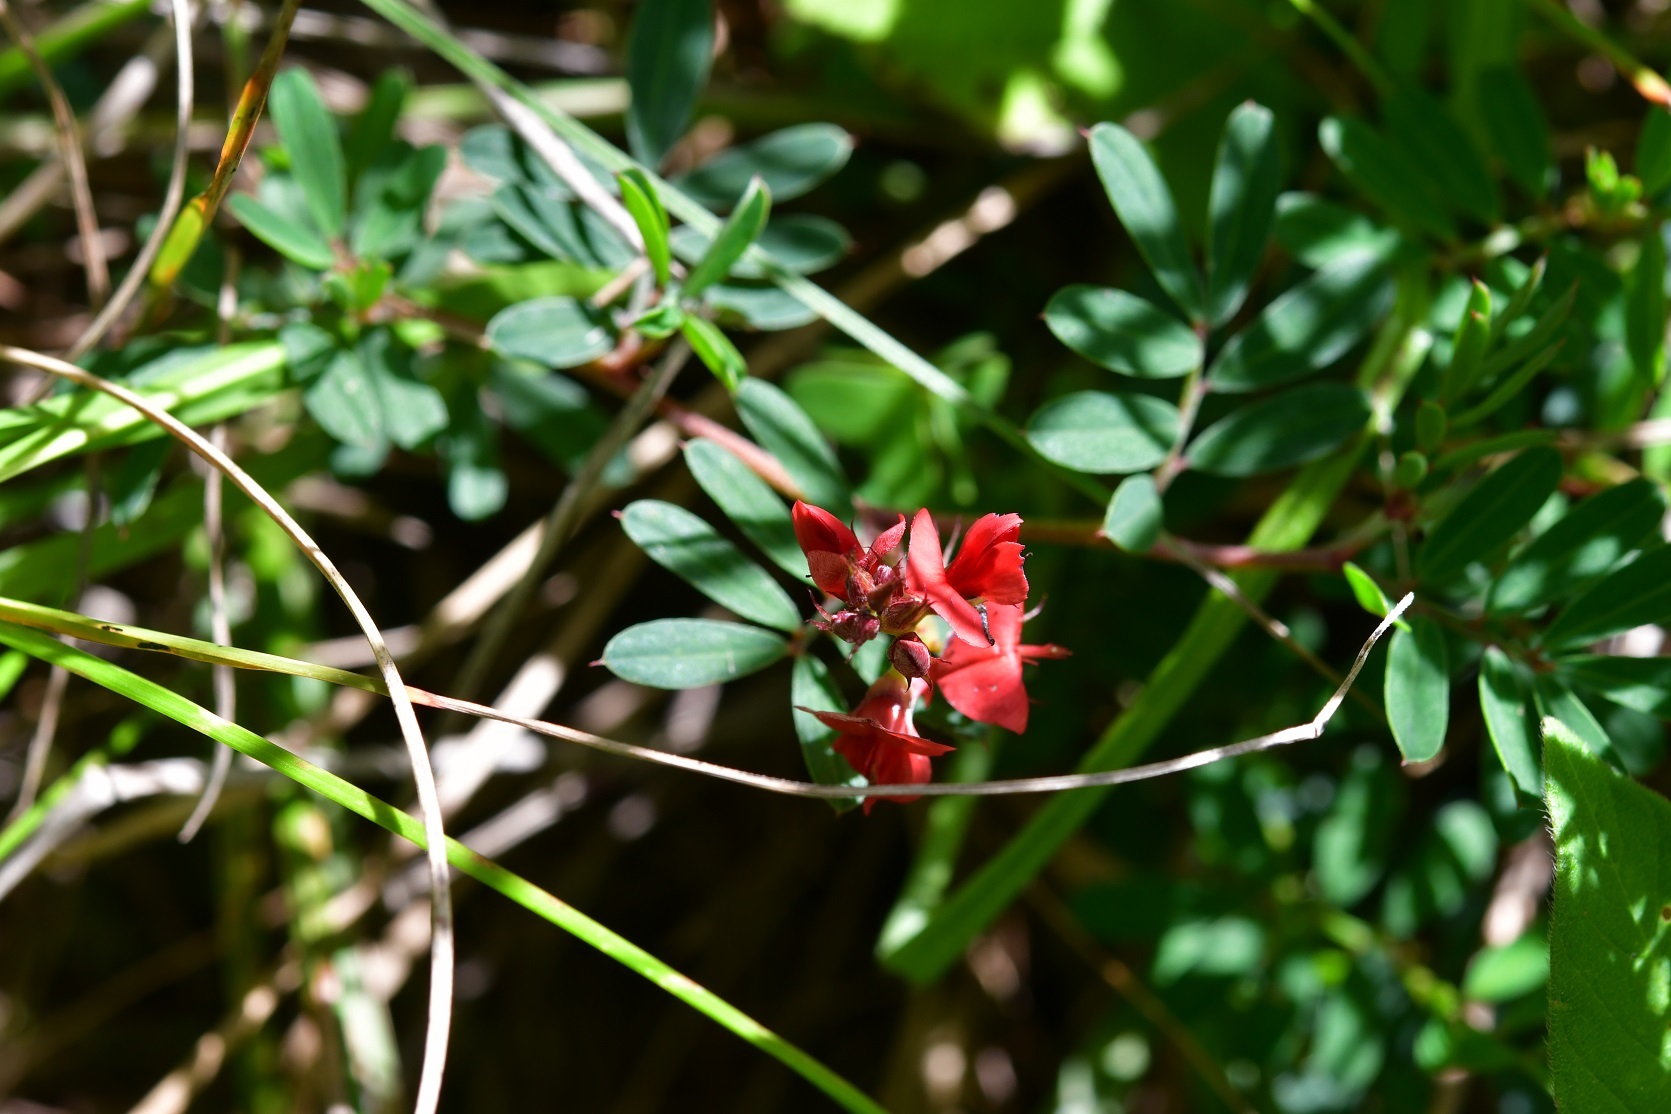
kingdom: Plantae
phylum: Tracheophyta
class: Magnoliopsida
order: Fabales
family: Fabaceae
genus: Indigofera
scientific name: Indigofera miniata
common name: Coast indigo
